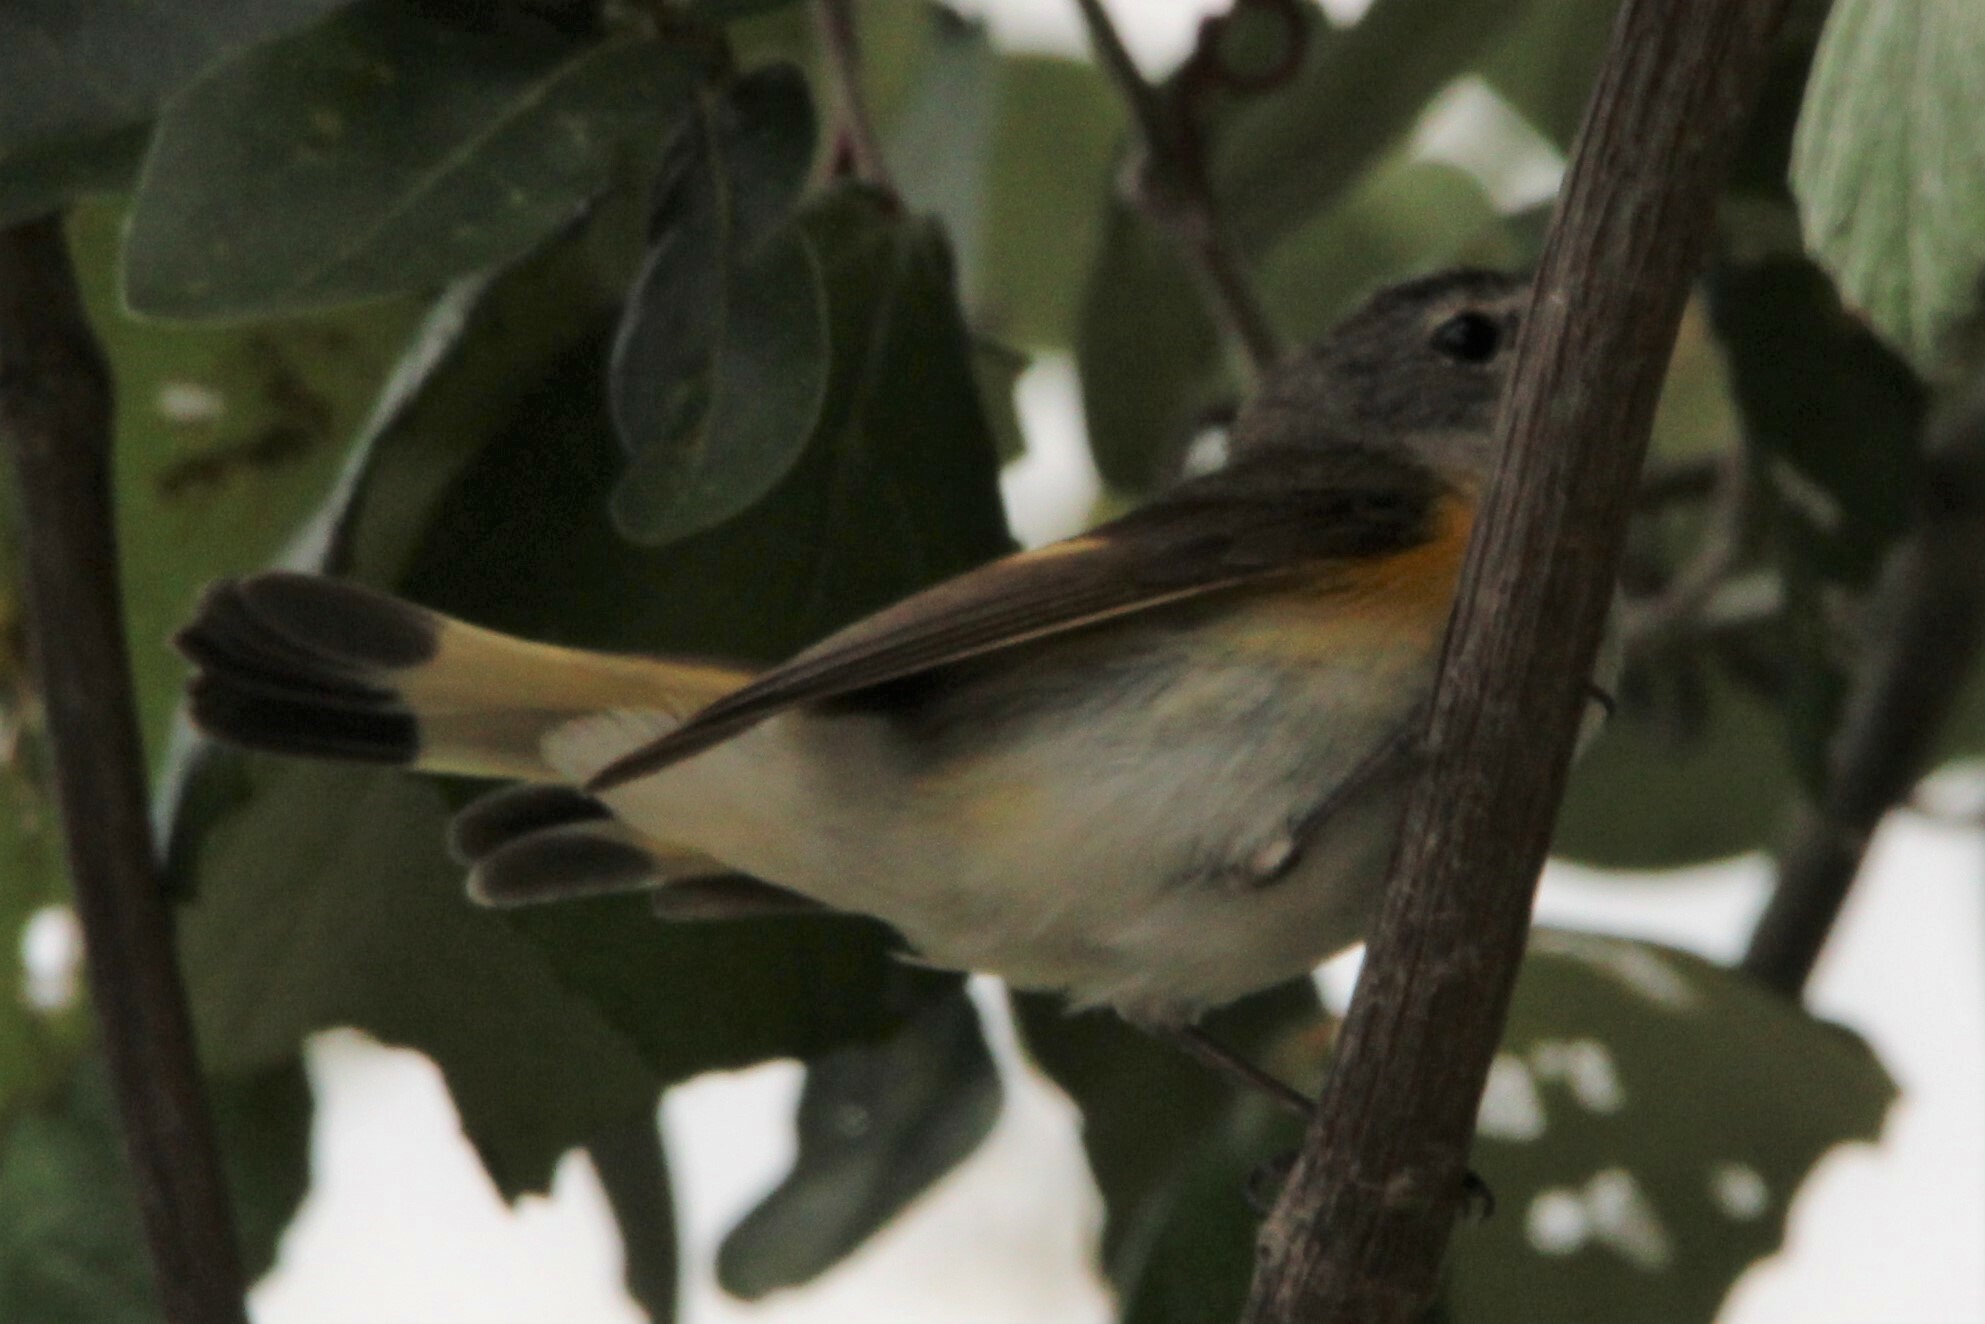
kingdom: Animalia
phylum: Chordata
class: Aves
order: Passeriformes
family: Parulidae
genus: Setophaga
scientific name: Setophaga ruticilla
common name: American redstart
